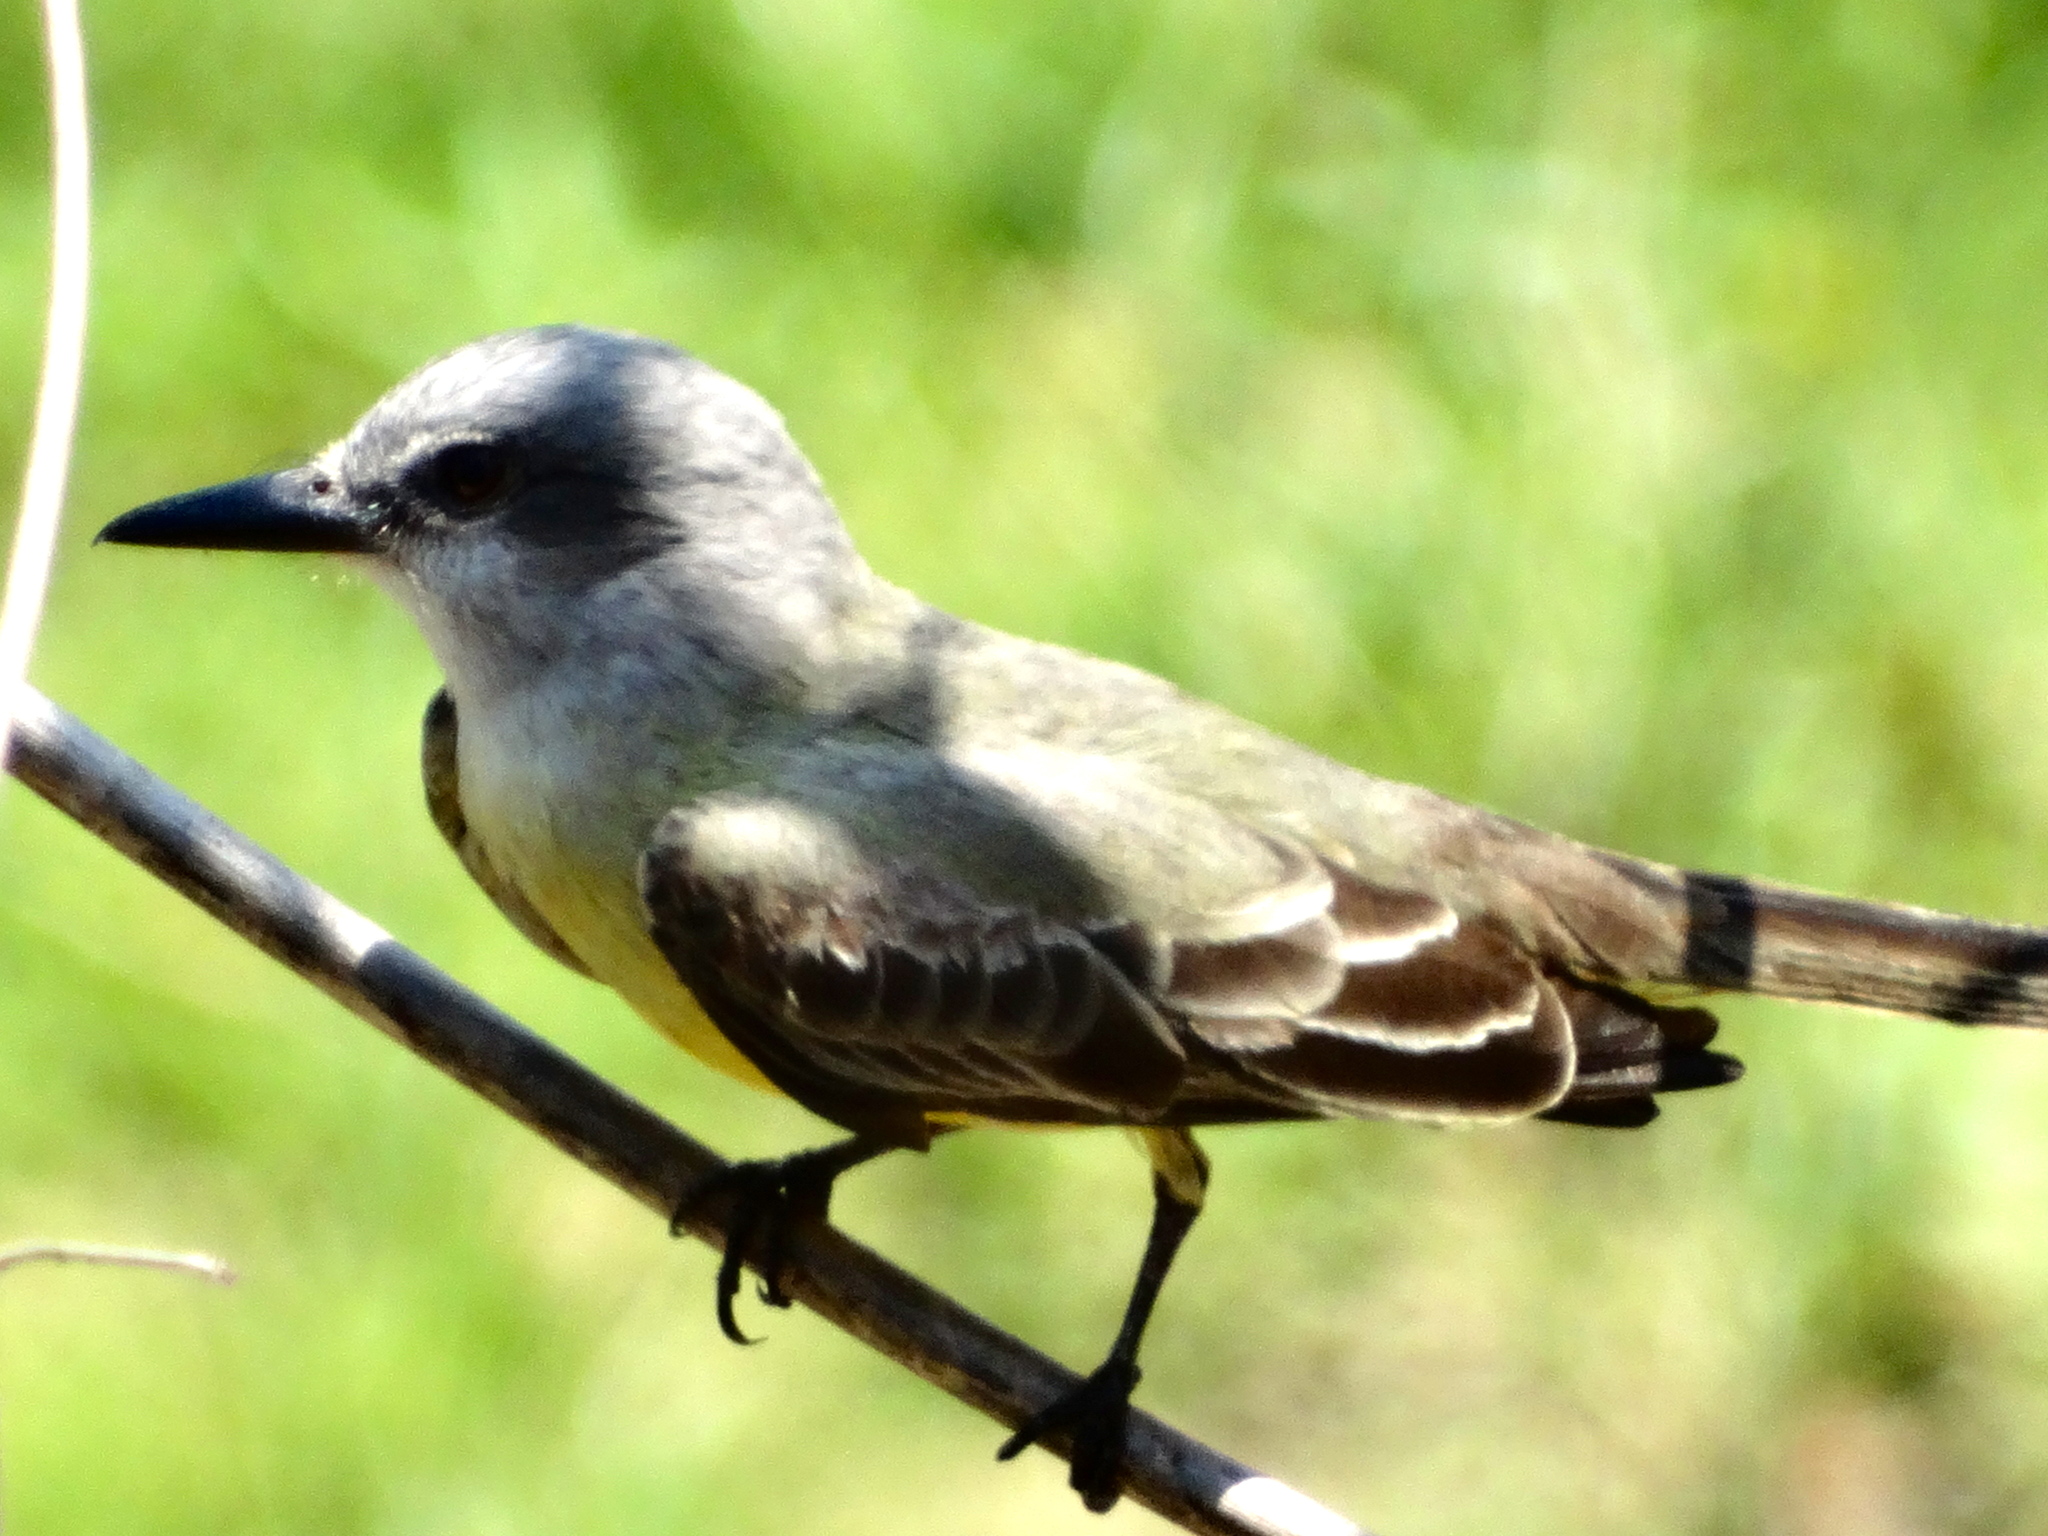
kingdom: Animalia
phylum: Chordata
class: Aves
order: Passeriformes
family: Tyrannidae
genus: Tyrannus
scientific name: Tyrannus melancholicus
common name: Tropical kingbird
